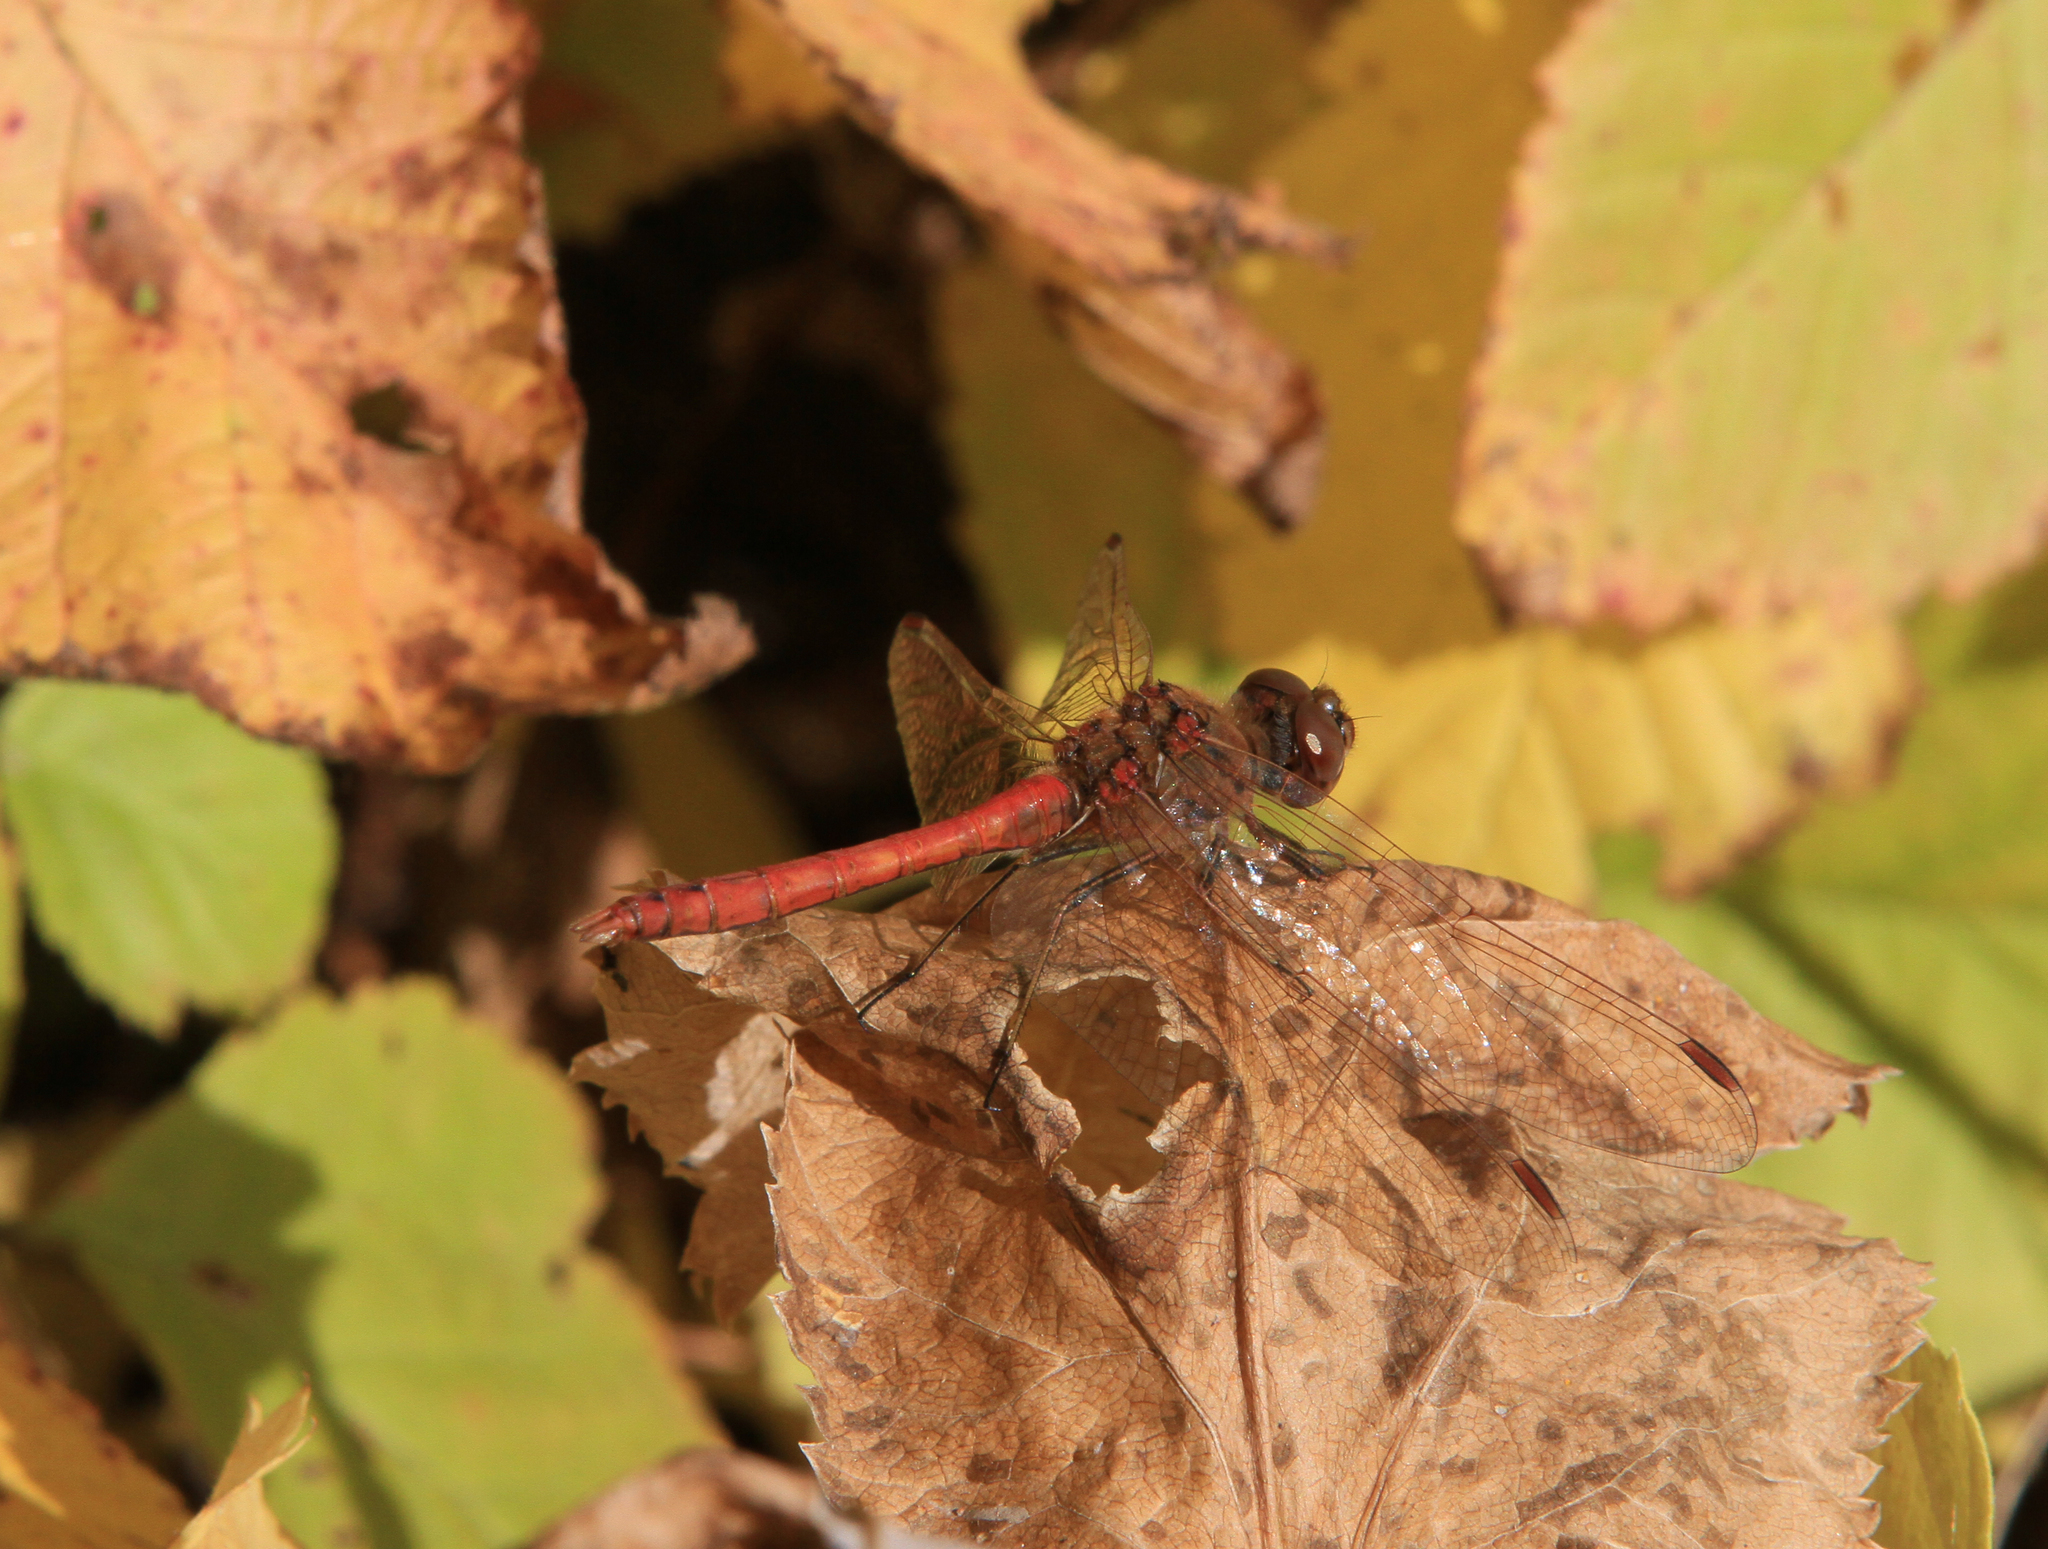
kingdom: Animalia
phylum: Arthropoda
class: Insecta
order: Odonata
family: Libellulidae
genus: Sympetrum
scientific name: Sympetrum vulgatum
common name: Vagrant darter
